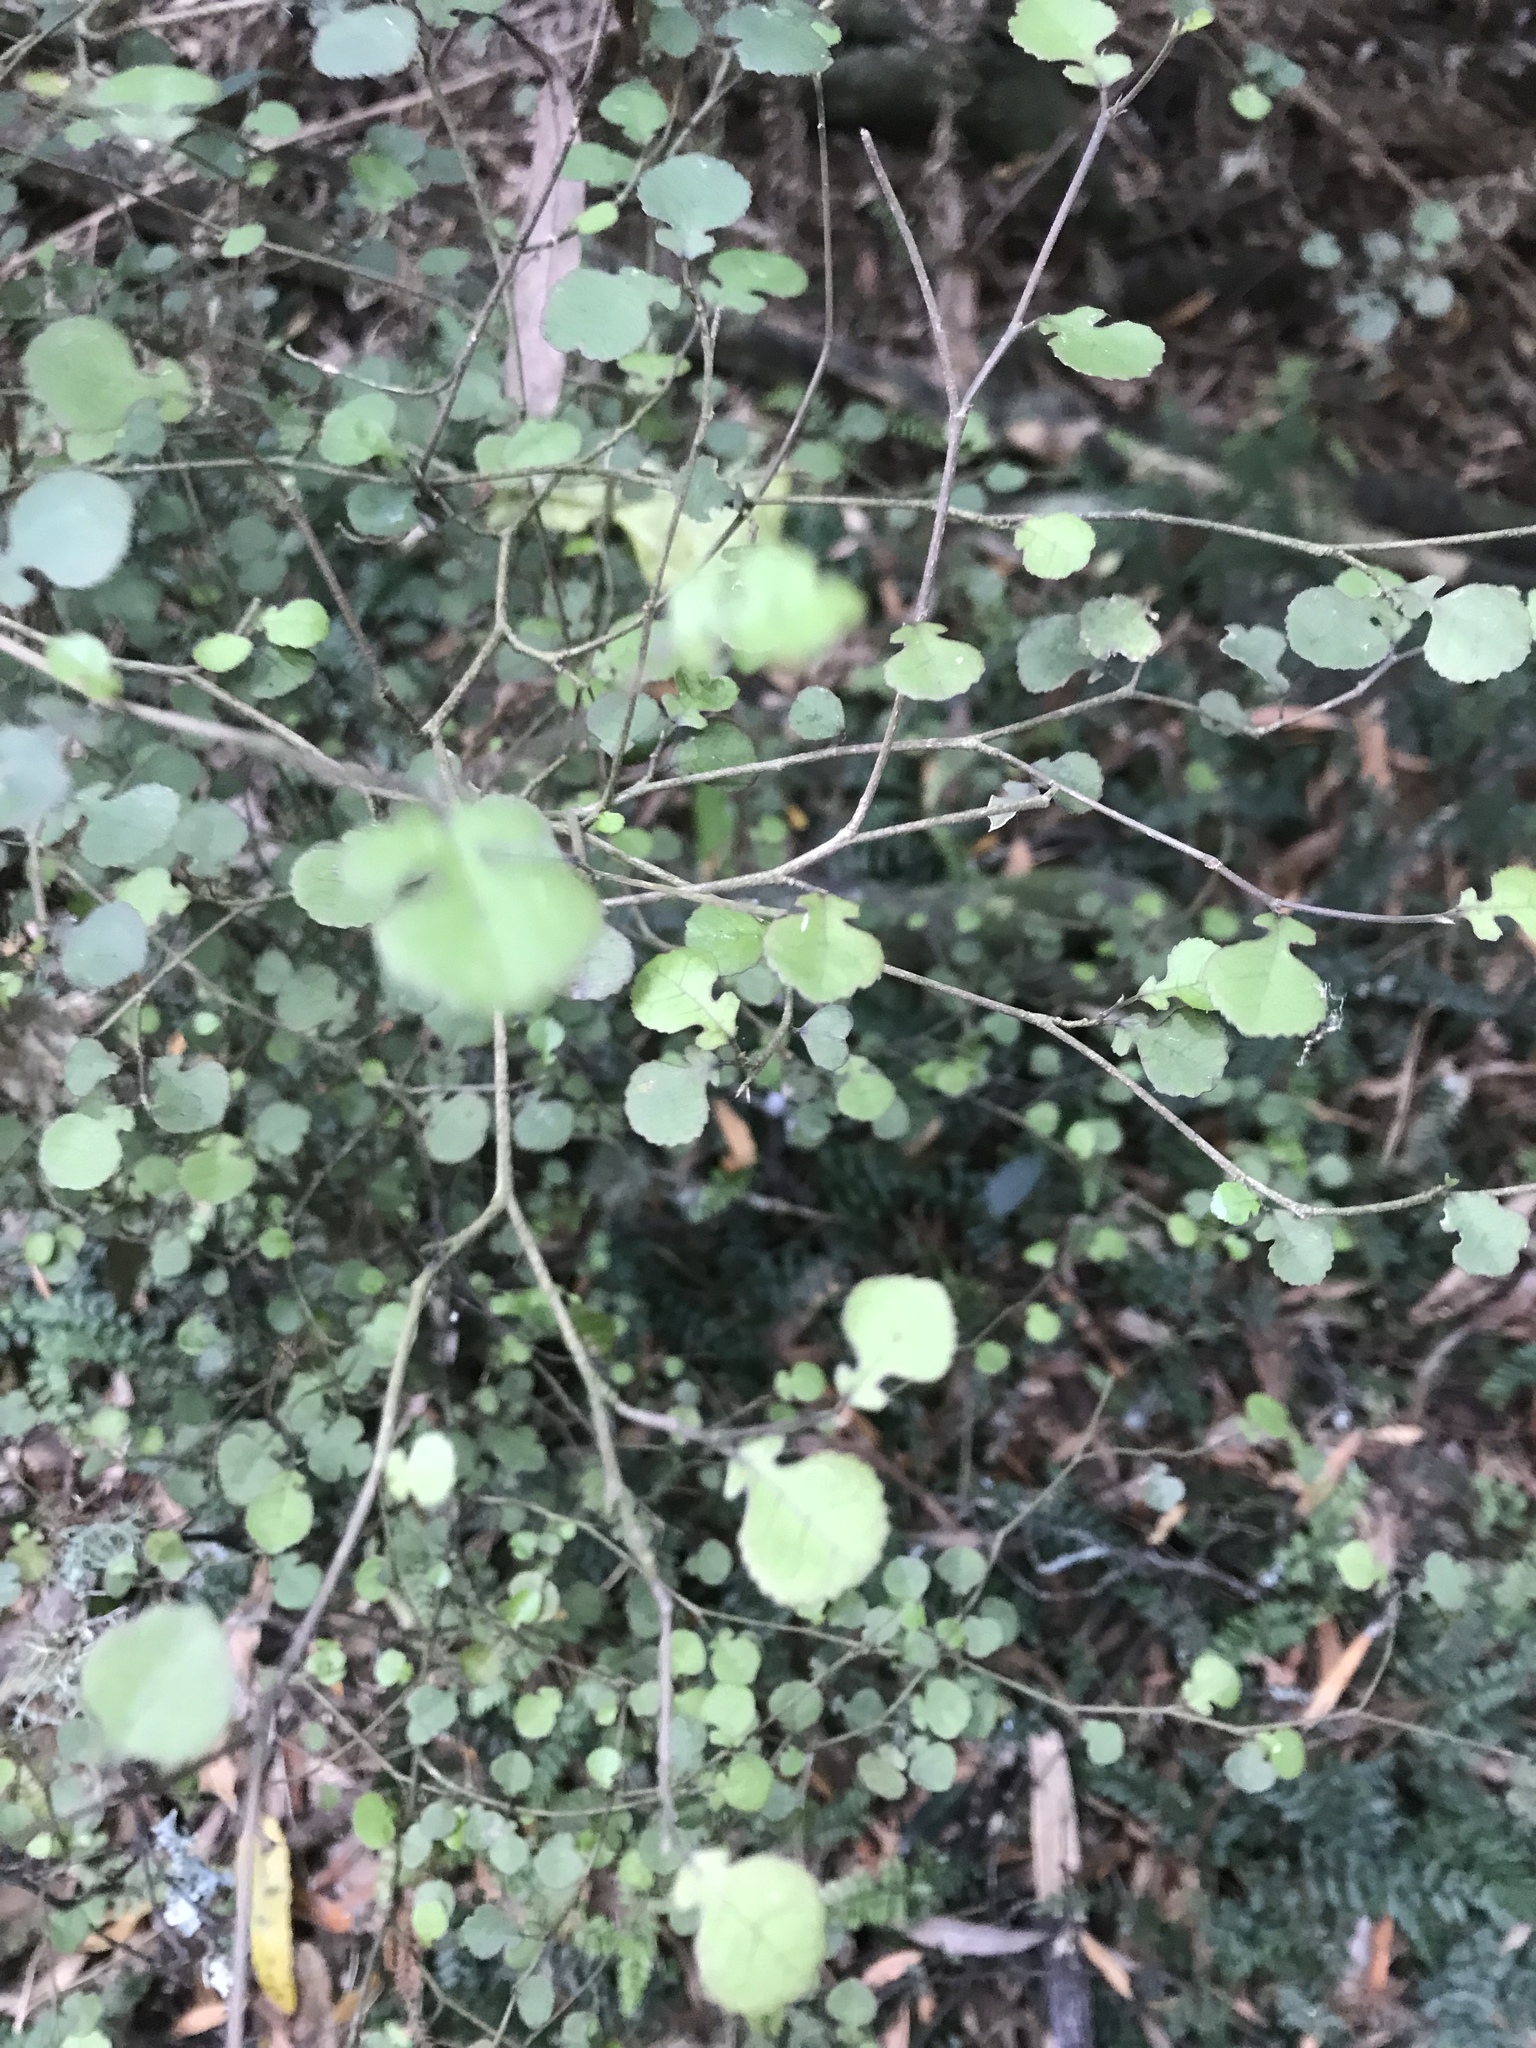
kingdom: Plantae
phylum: Tracheophyta
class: Magnoliopsida
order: Rosales
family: Moraceae
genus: Paratrophis
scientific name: Paratrophis microphylla
